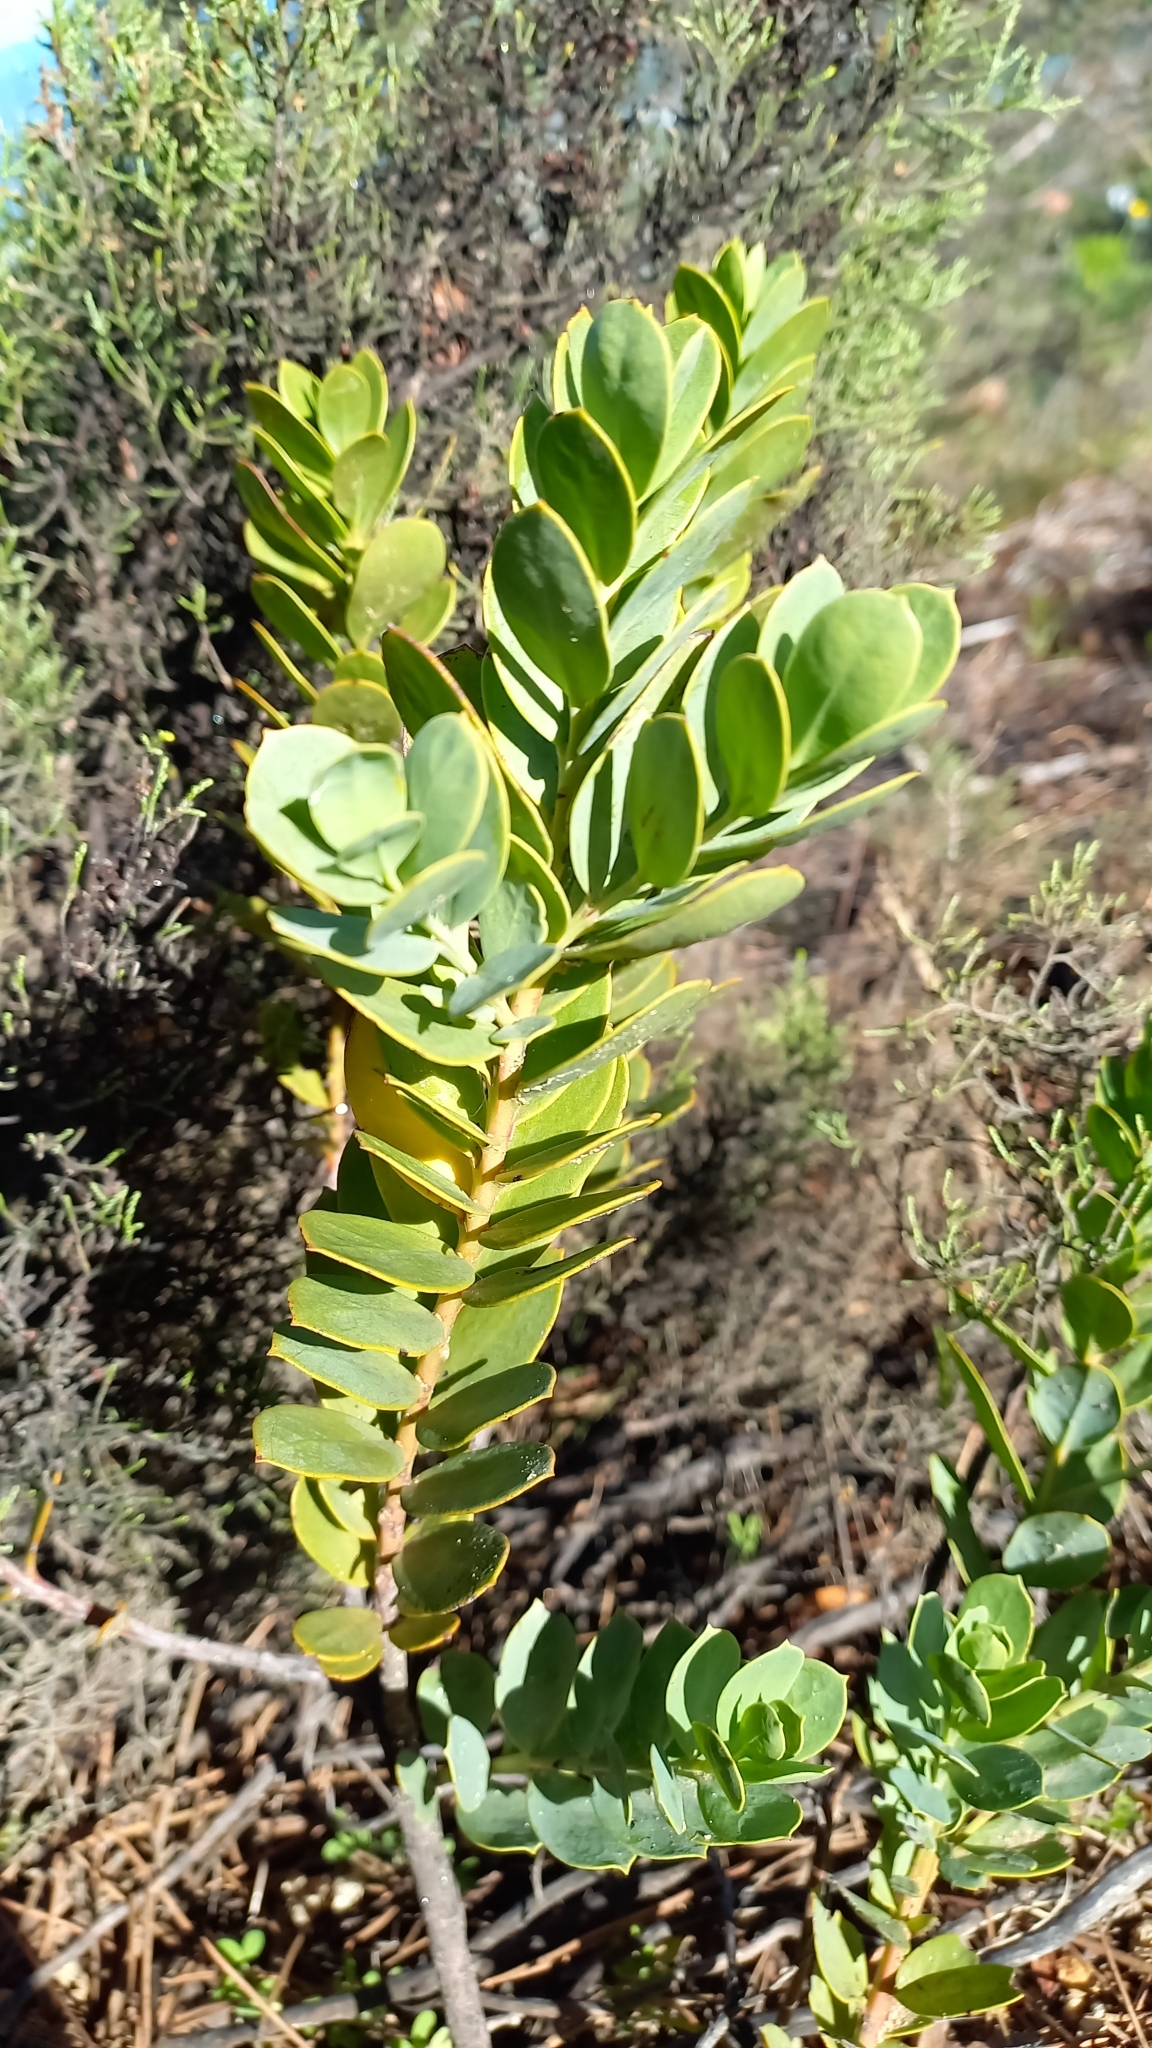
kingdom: Plantae
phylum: Tracheophyta
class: Magnoliopsida
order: Santalales
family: Santalaceae
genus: Osyris
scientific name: Osyris compressa
